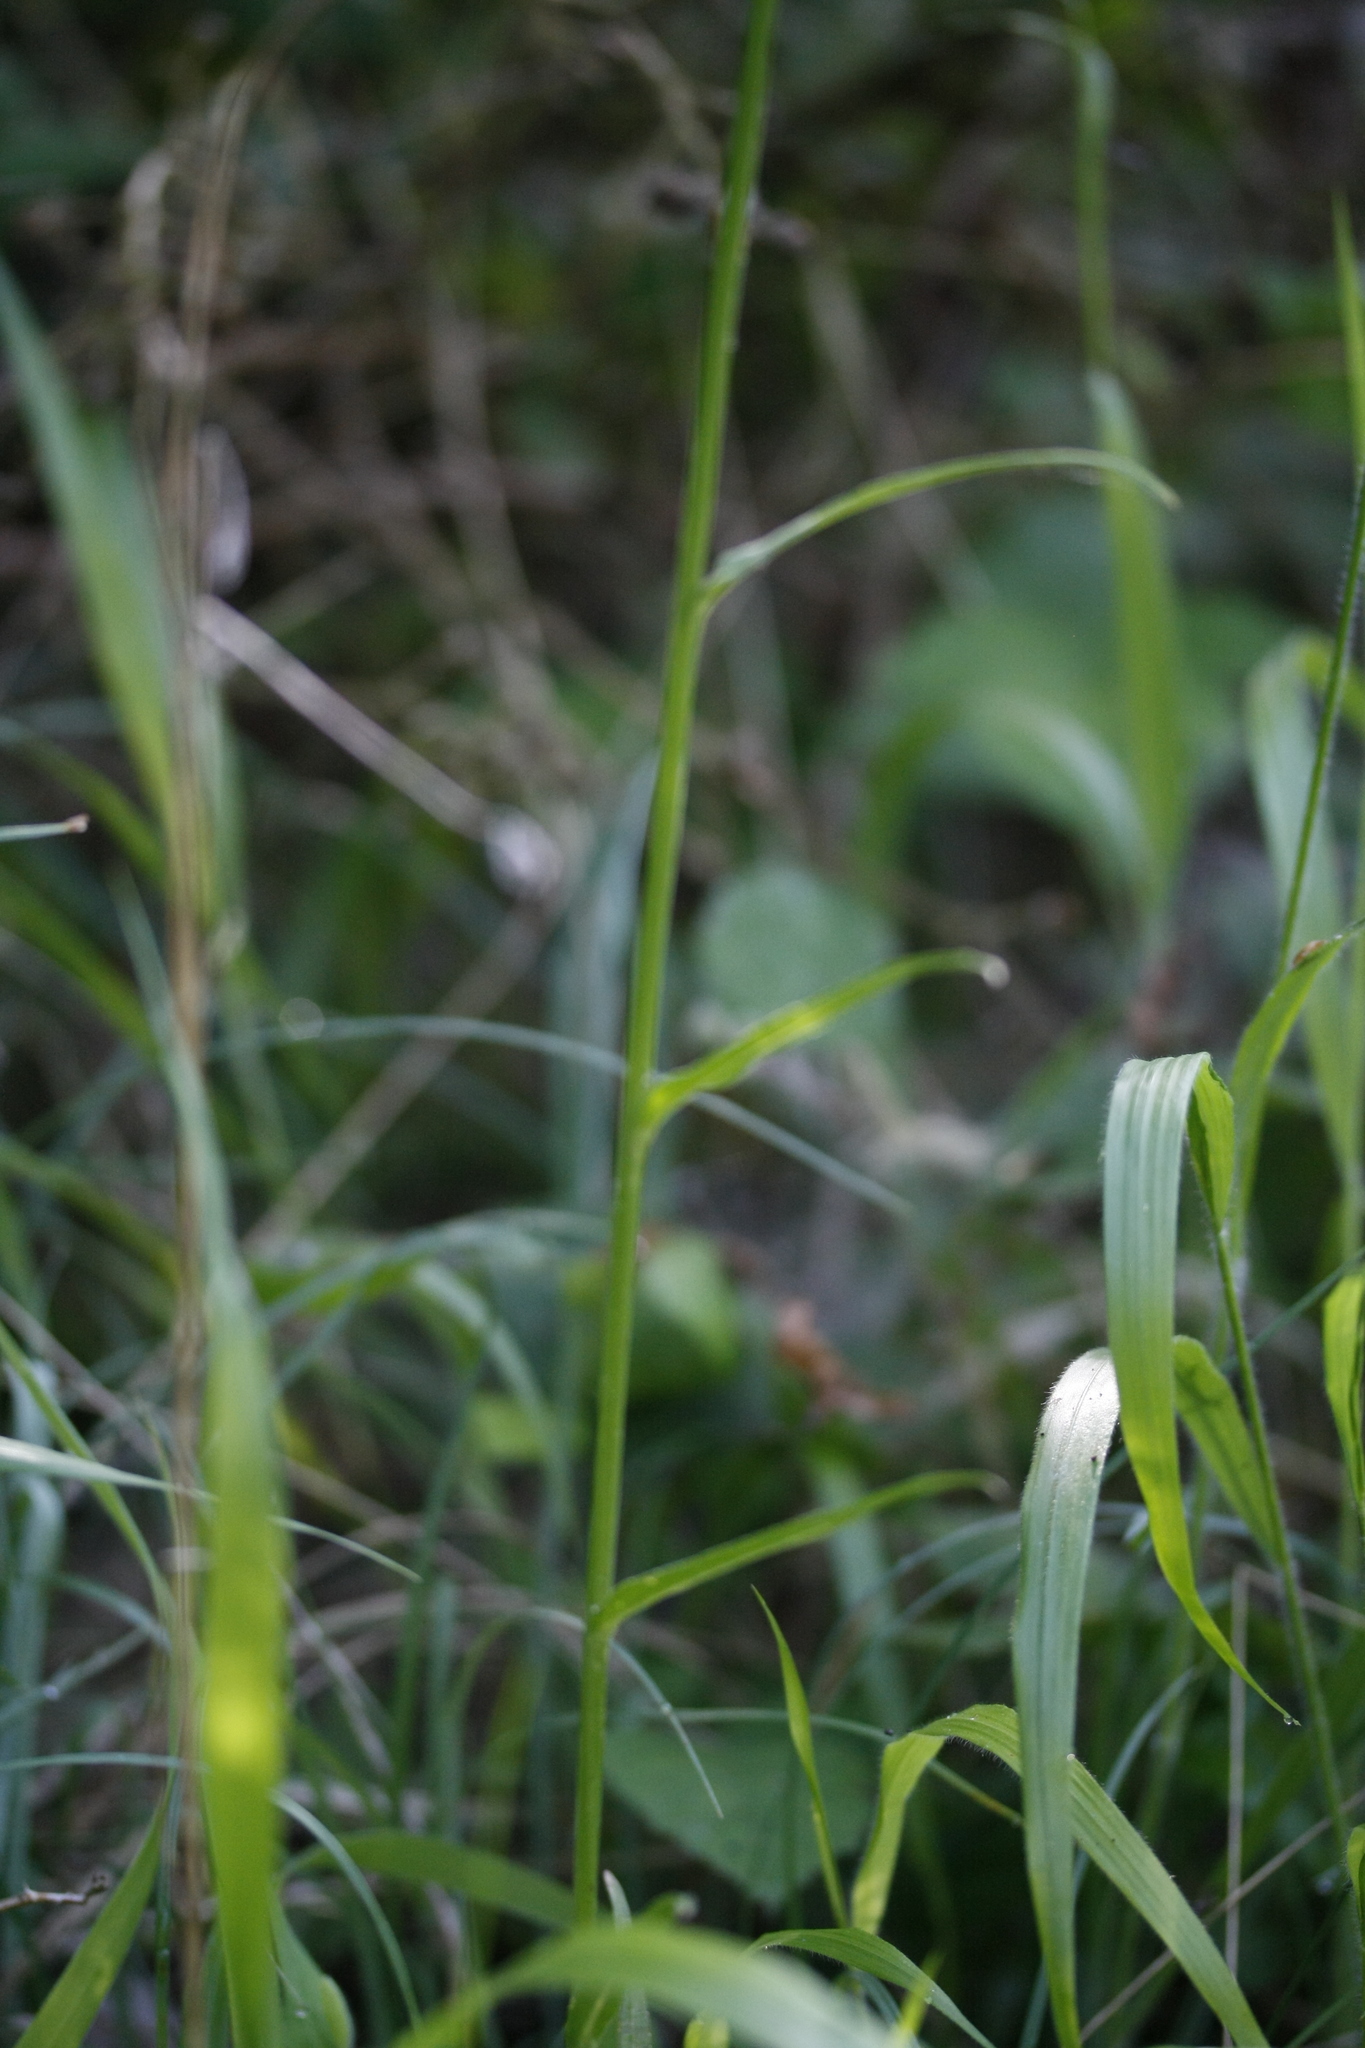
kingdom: Plantae
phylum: Tracheophyta
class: Magnoliopsida
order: Asterales
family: Campanulaceae
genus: Campanula
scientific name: Campanula persicifolia
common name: Peach-leaved bellflower
